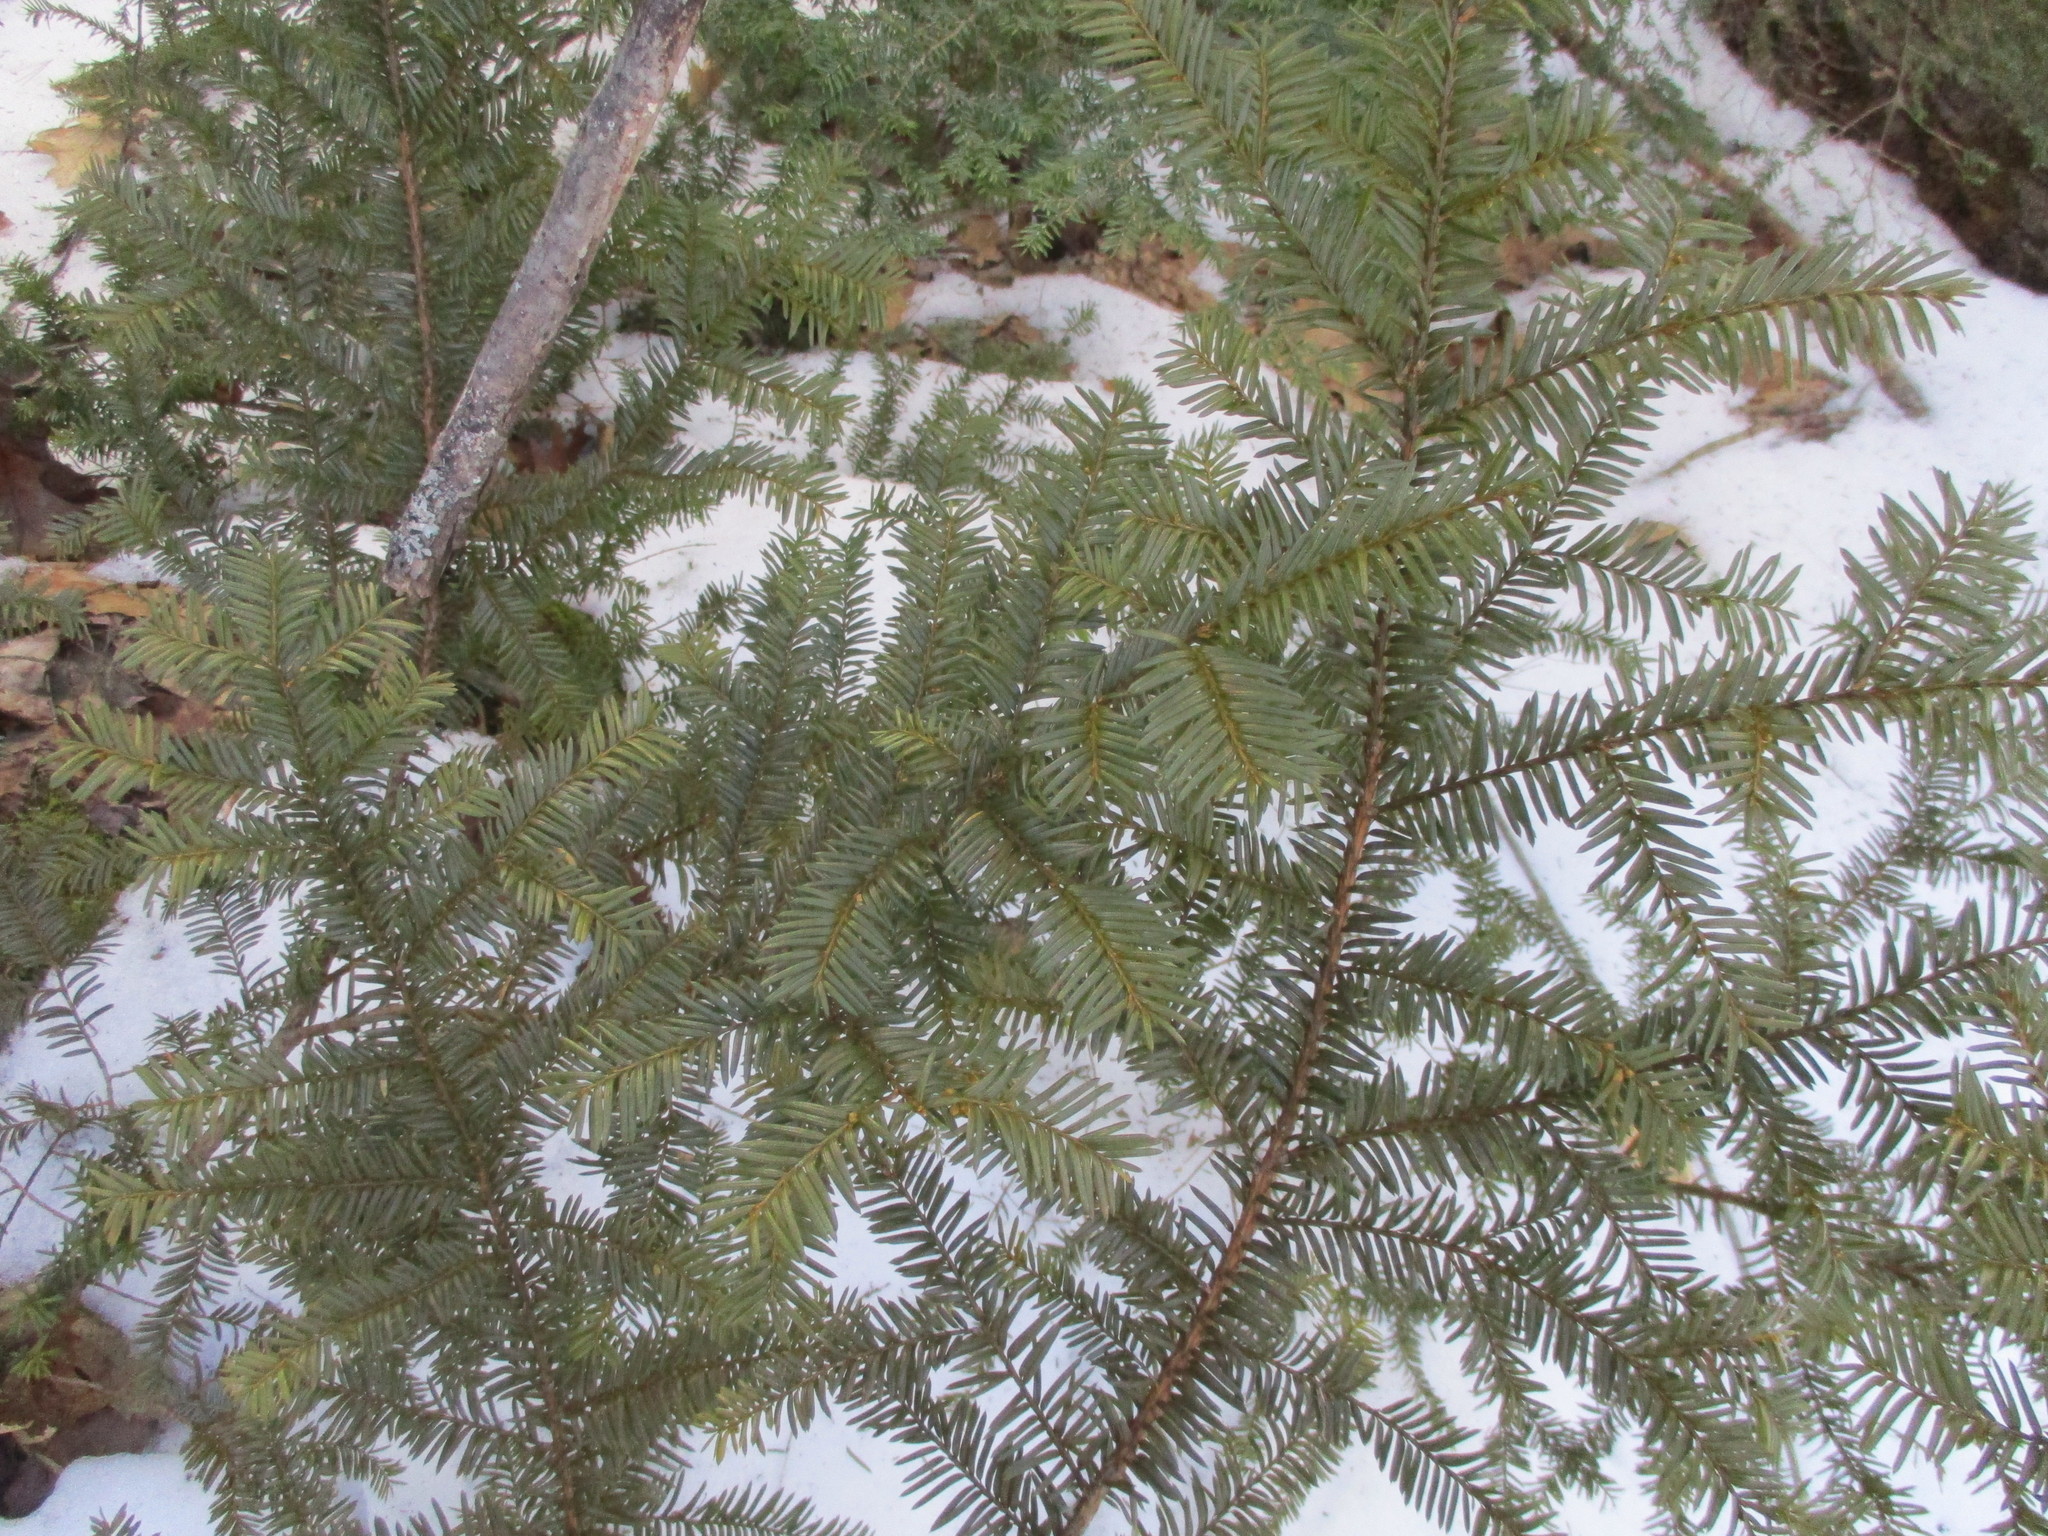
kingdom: Plantae
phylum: Tracheophyta
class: Pinopsida
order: Pinales
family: Taxaceae
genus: Taxus
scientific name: Taxus canadensis
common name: American yew
